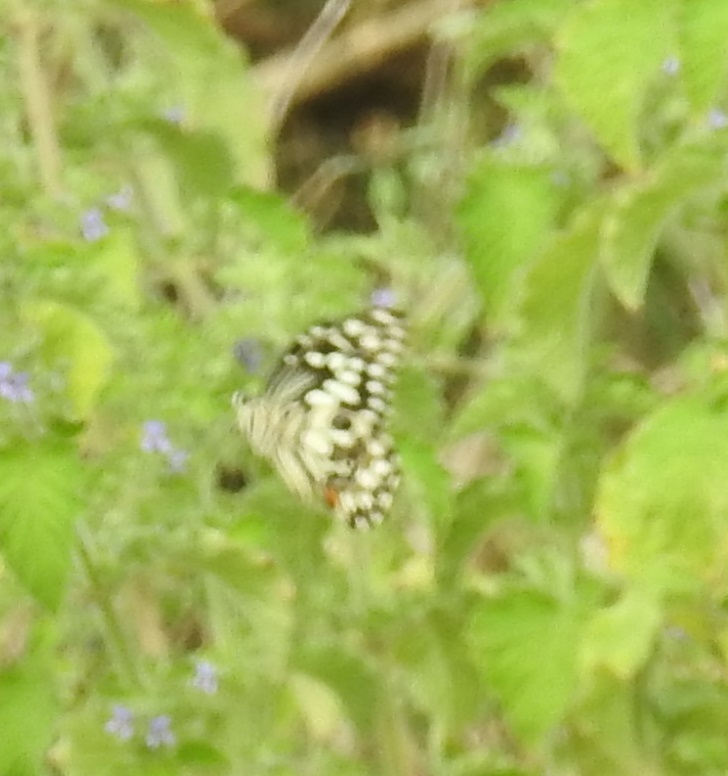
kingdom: Animalia
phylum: Arthropoda
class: Insecta
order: Lepidoptera
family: Papilionidae
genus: Papilio
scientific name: Papilio demoleus
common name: Lime butterfly
